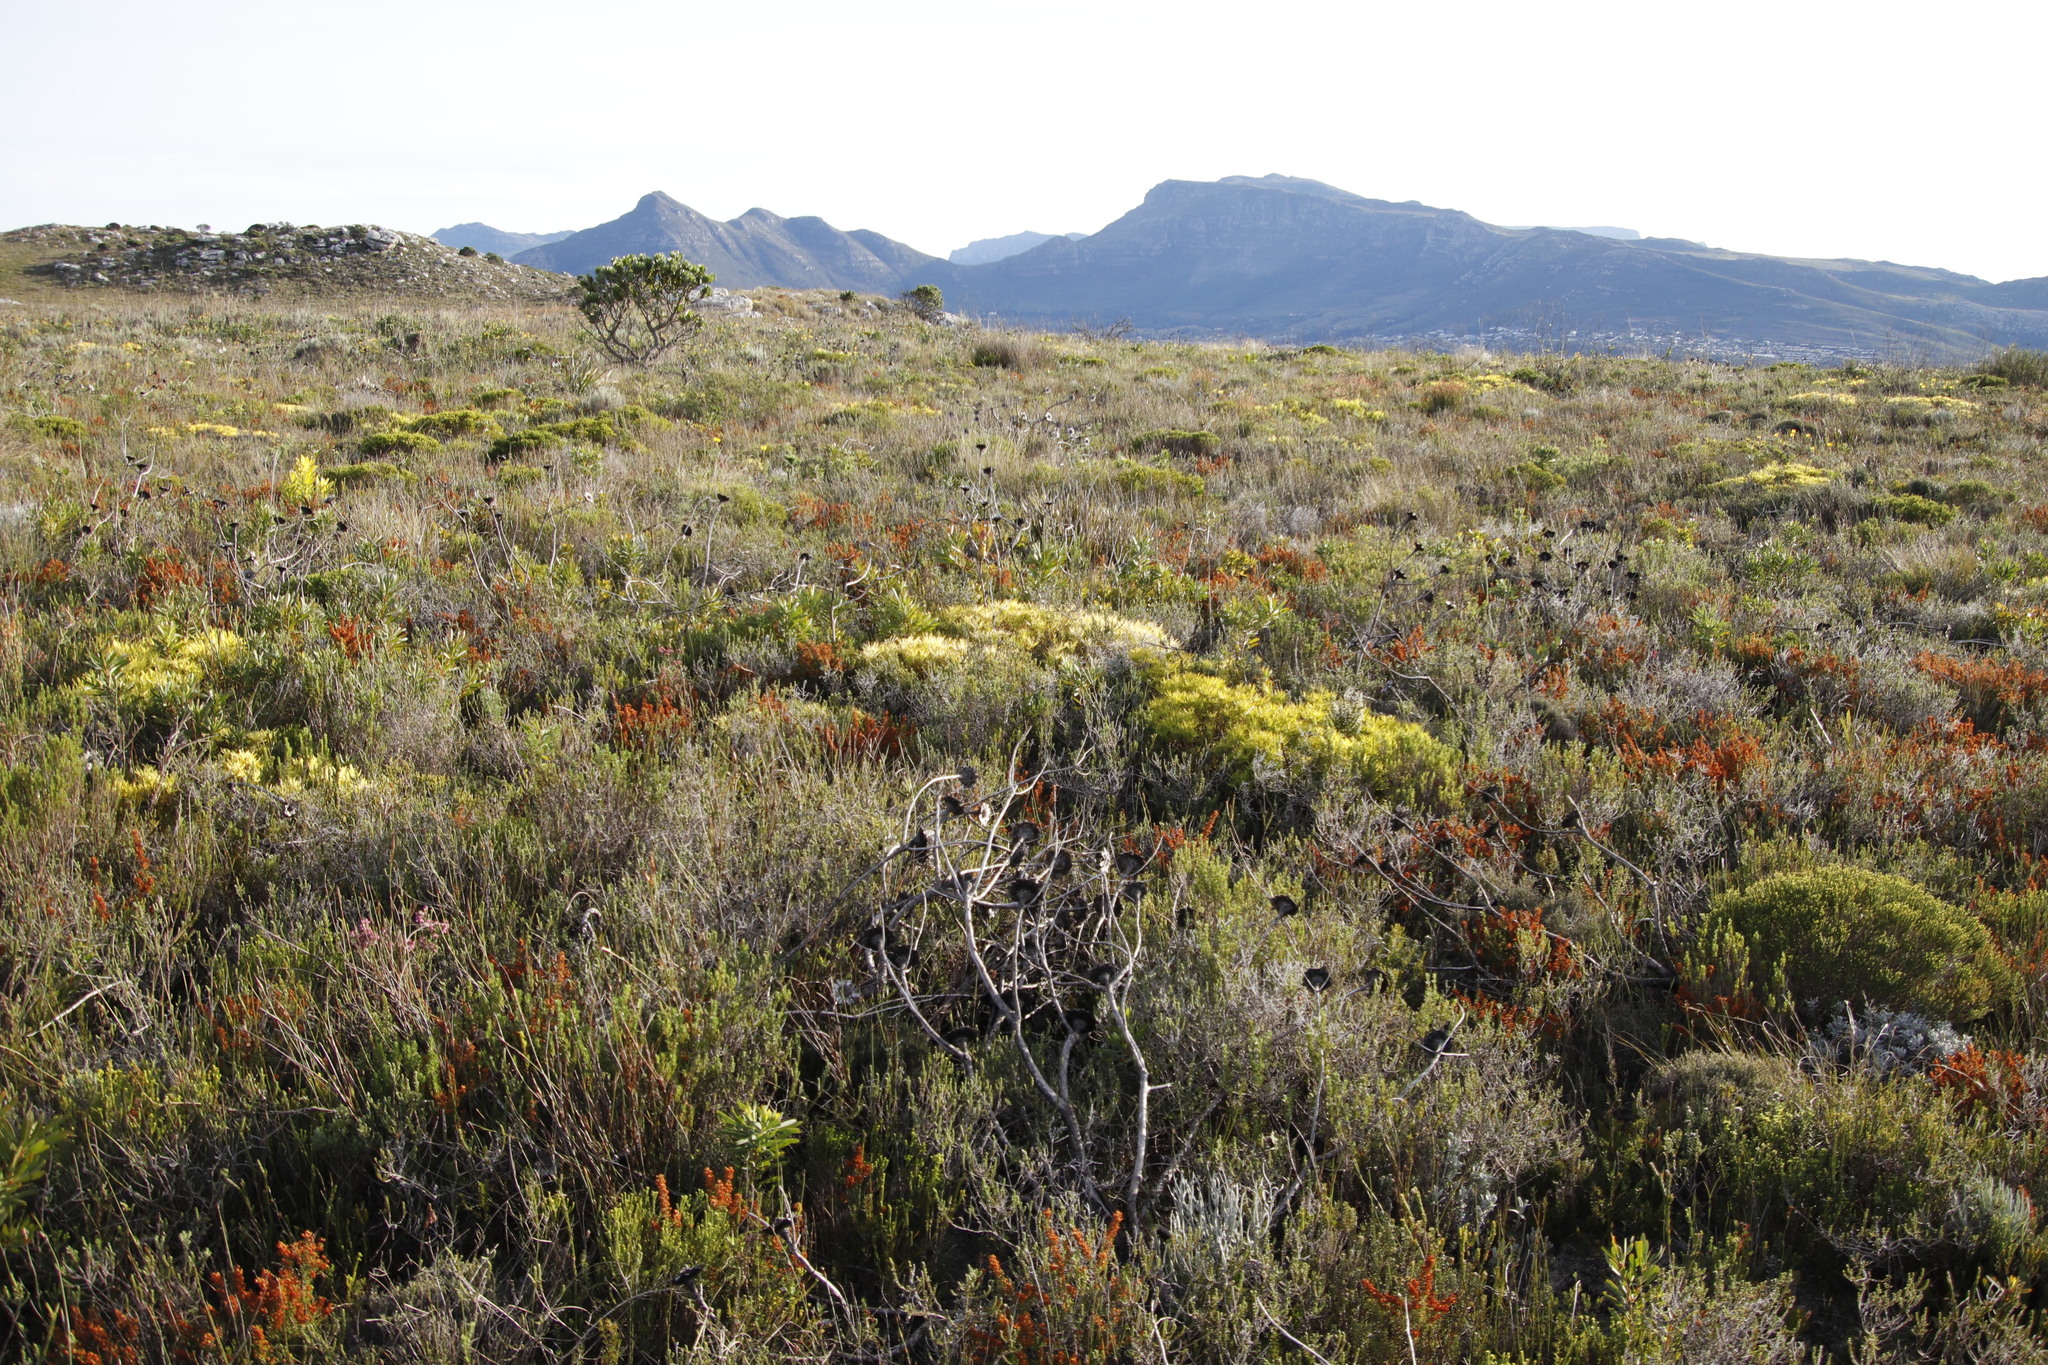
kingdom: Plantae
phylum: Tracheophyta
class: Magnoliopsida
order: Proteales
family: Proteaceae
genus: Leucadendron
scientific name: Leucadendron salignum
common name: Common sunshine conebush
